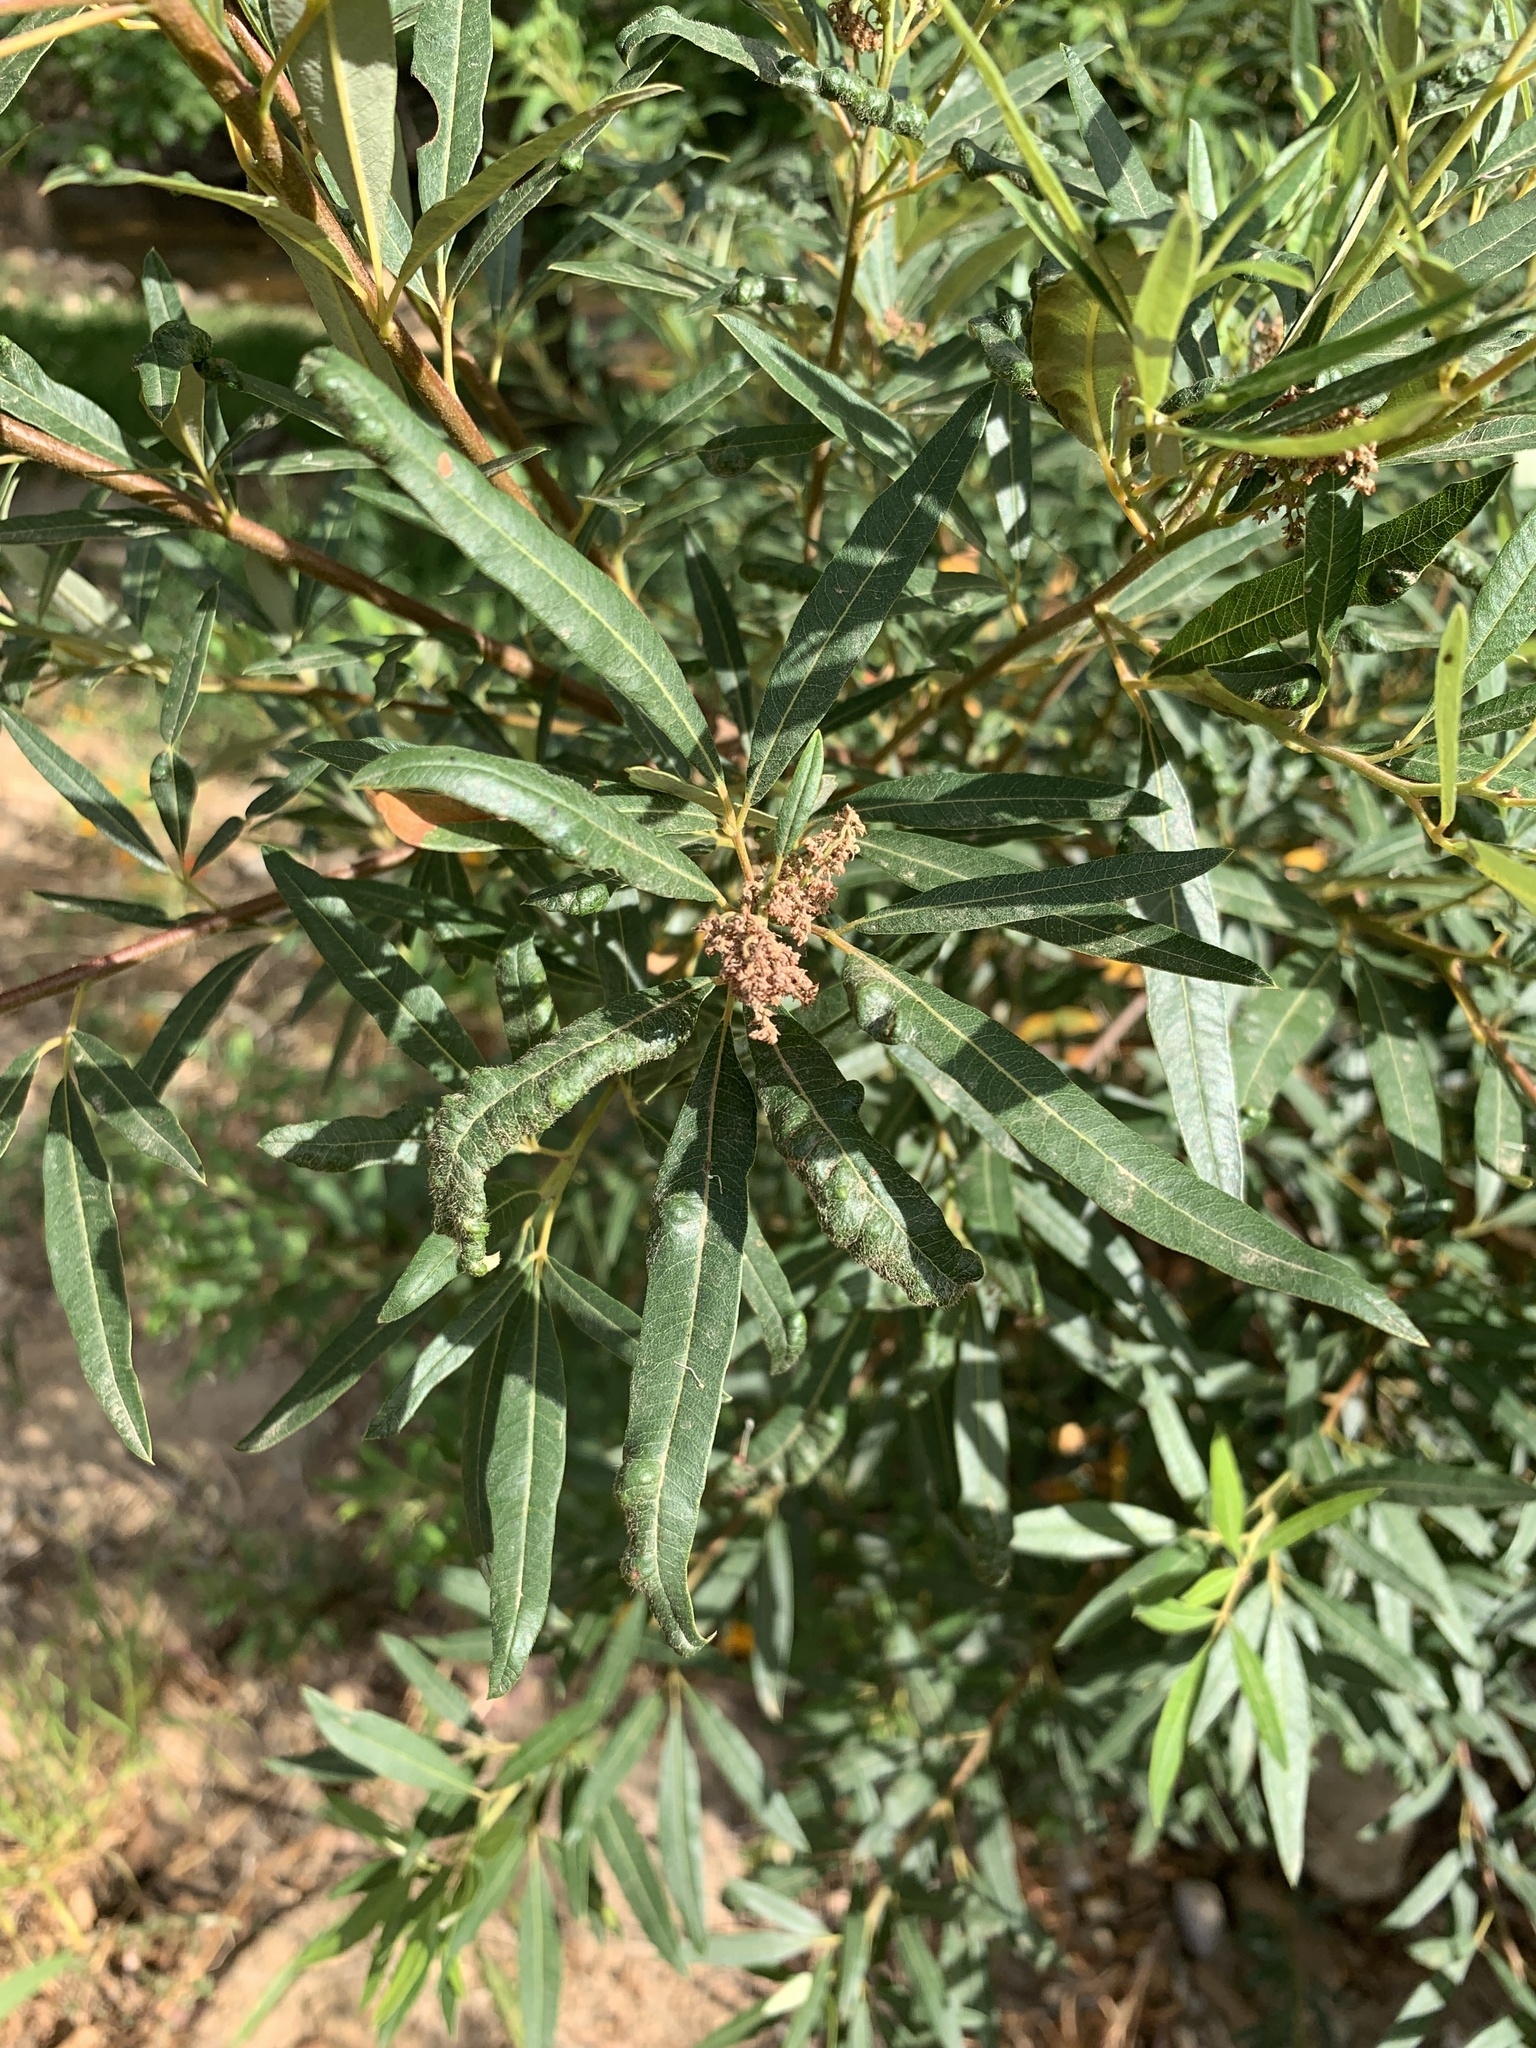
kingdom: Plantae
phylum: Tracheophyta
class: Magnoliopsida
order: Sapindales
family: Anacardiaceae
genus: Searsia
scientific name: Searsia angustifolia
